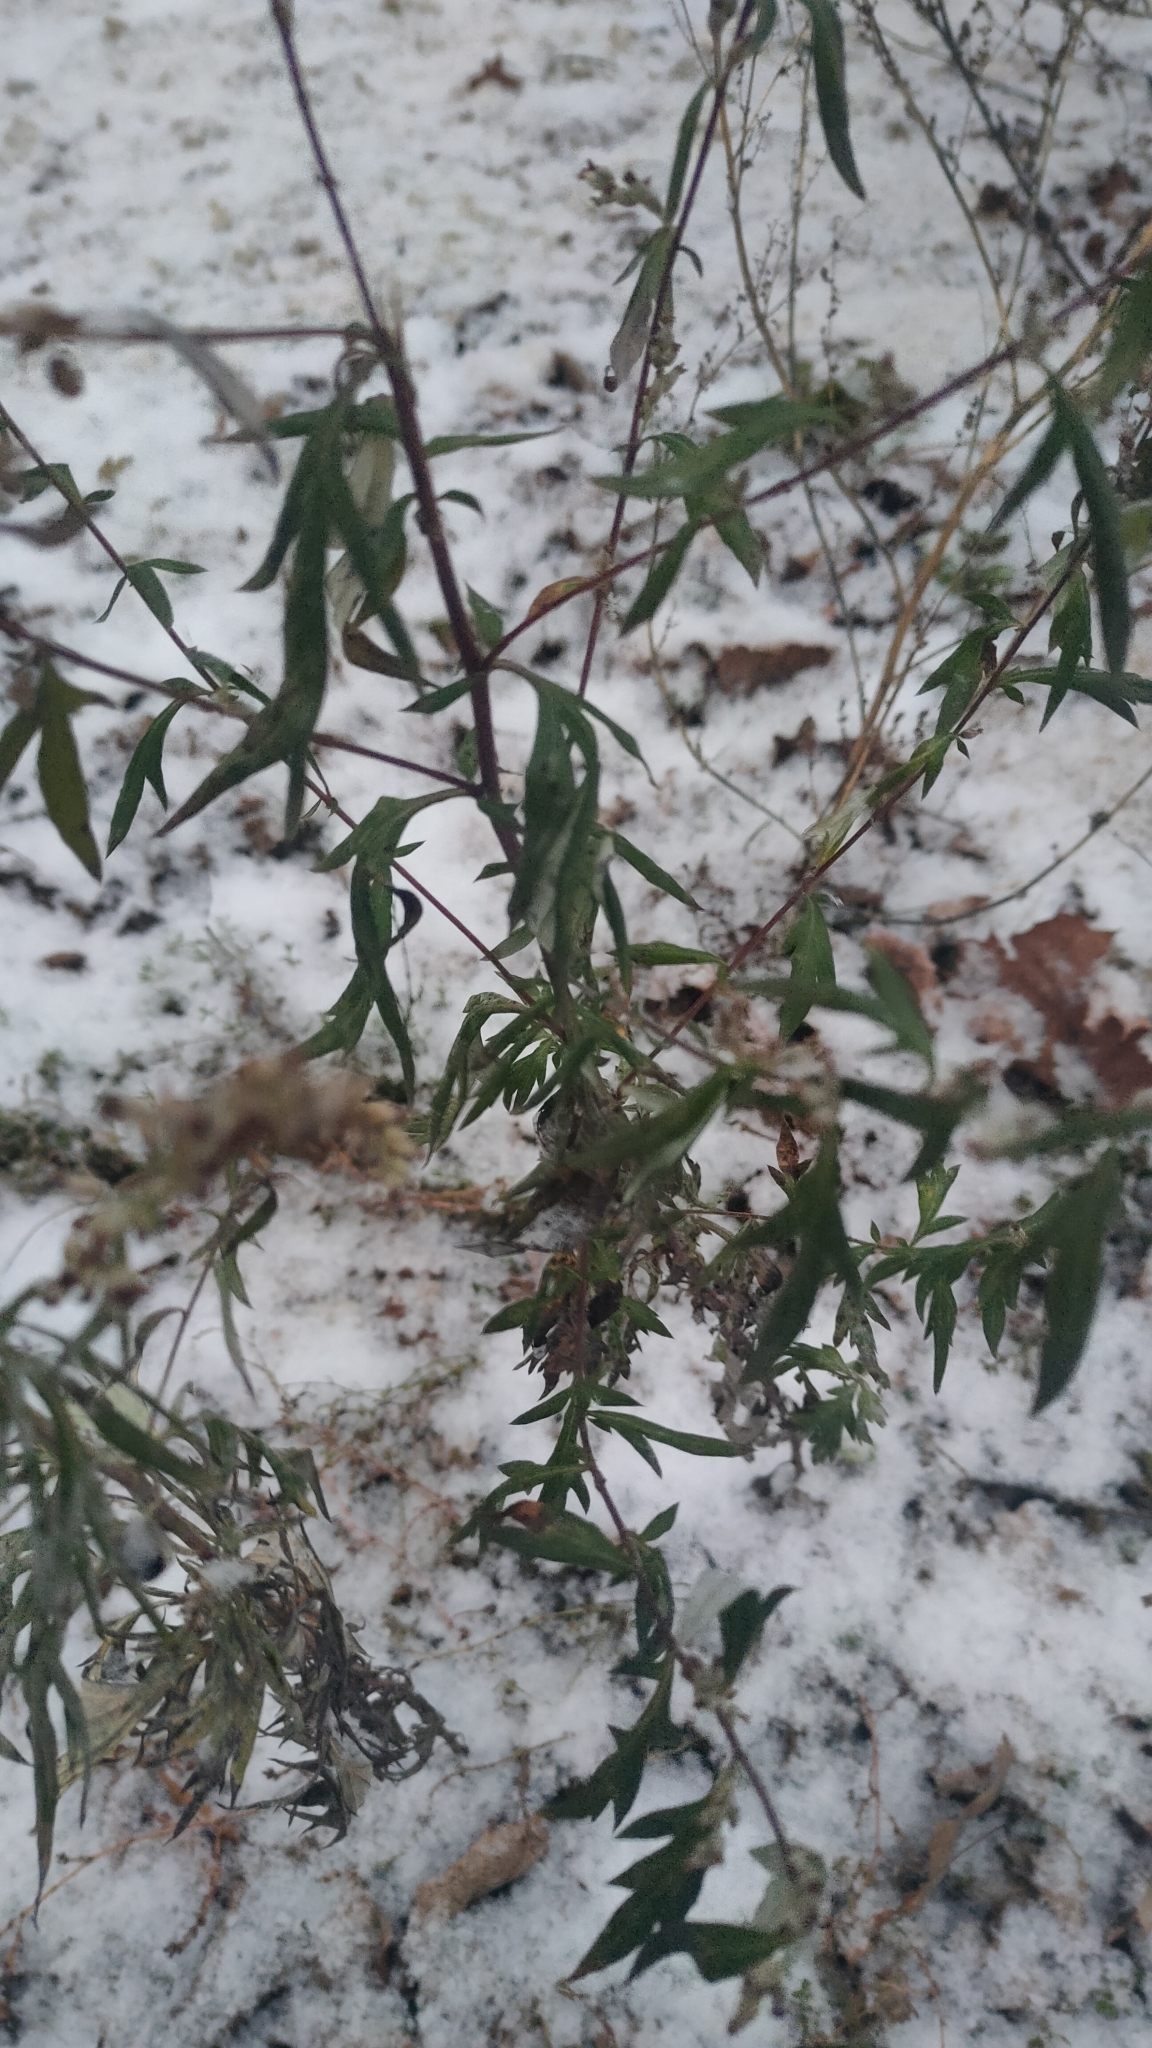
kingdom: Plantae
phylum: Tracheophyta
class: Magnoliopsida
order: Asterales
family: Asteraceae
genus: Artemisia
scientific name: Artemisia vulgaris
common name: Mugwort
